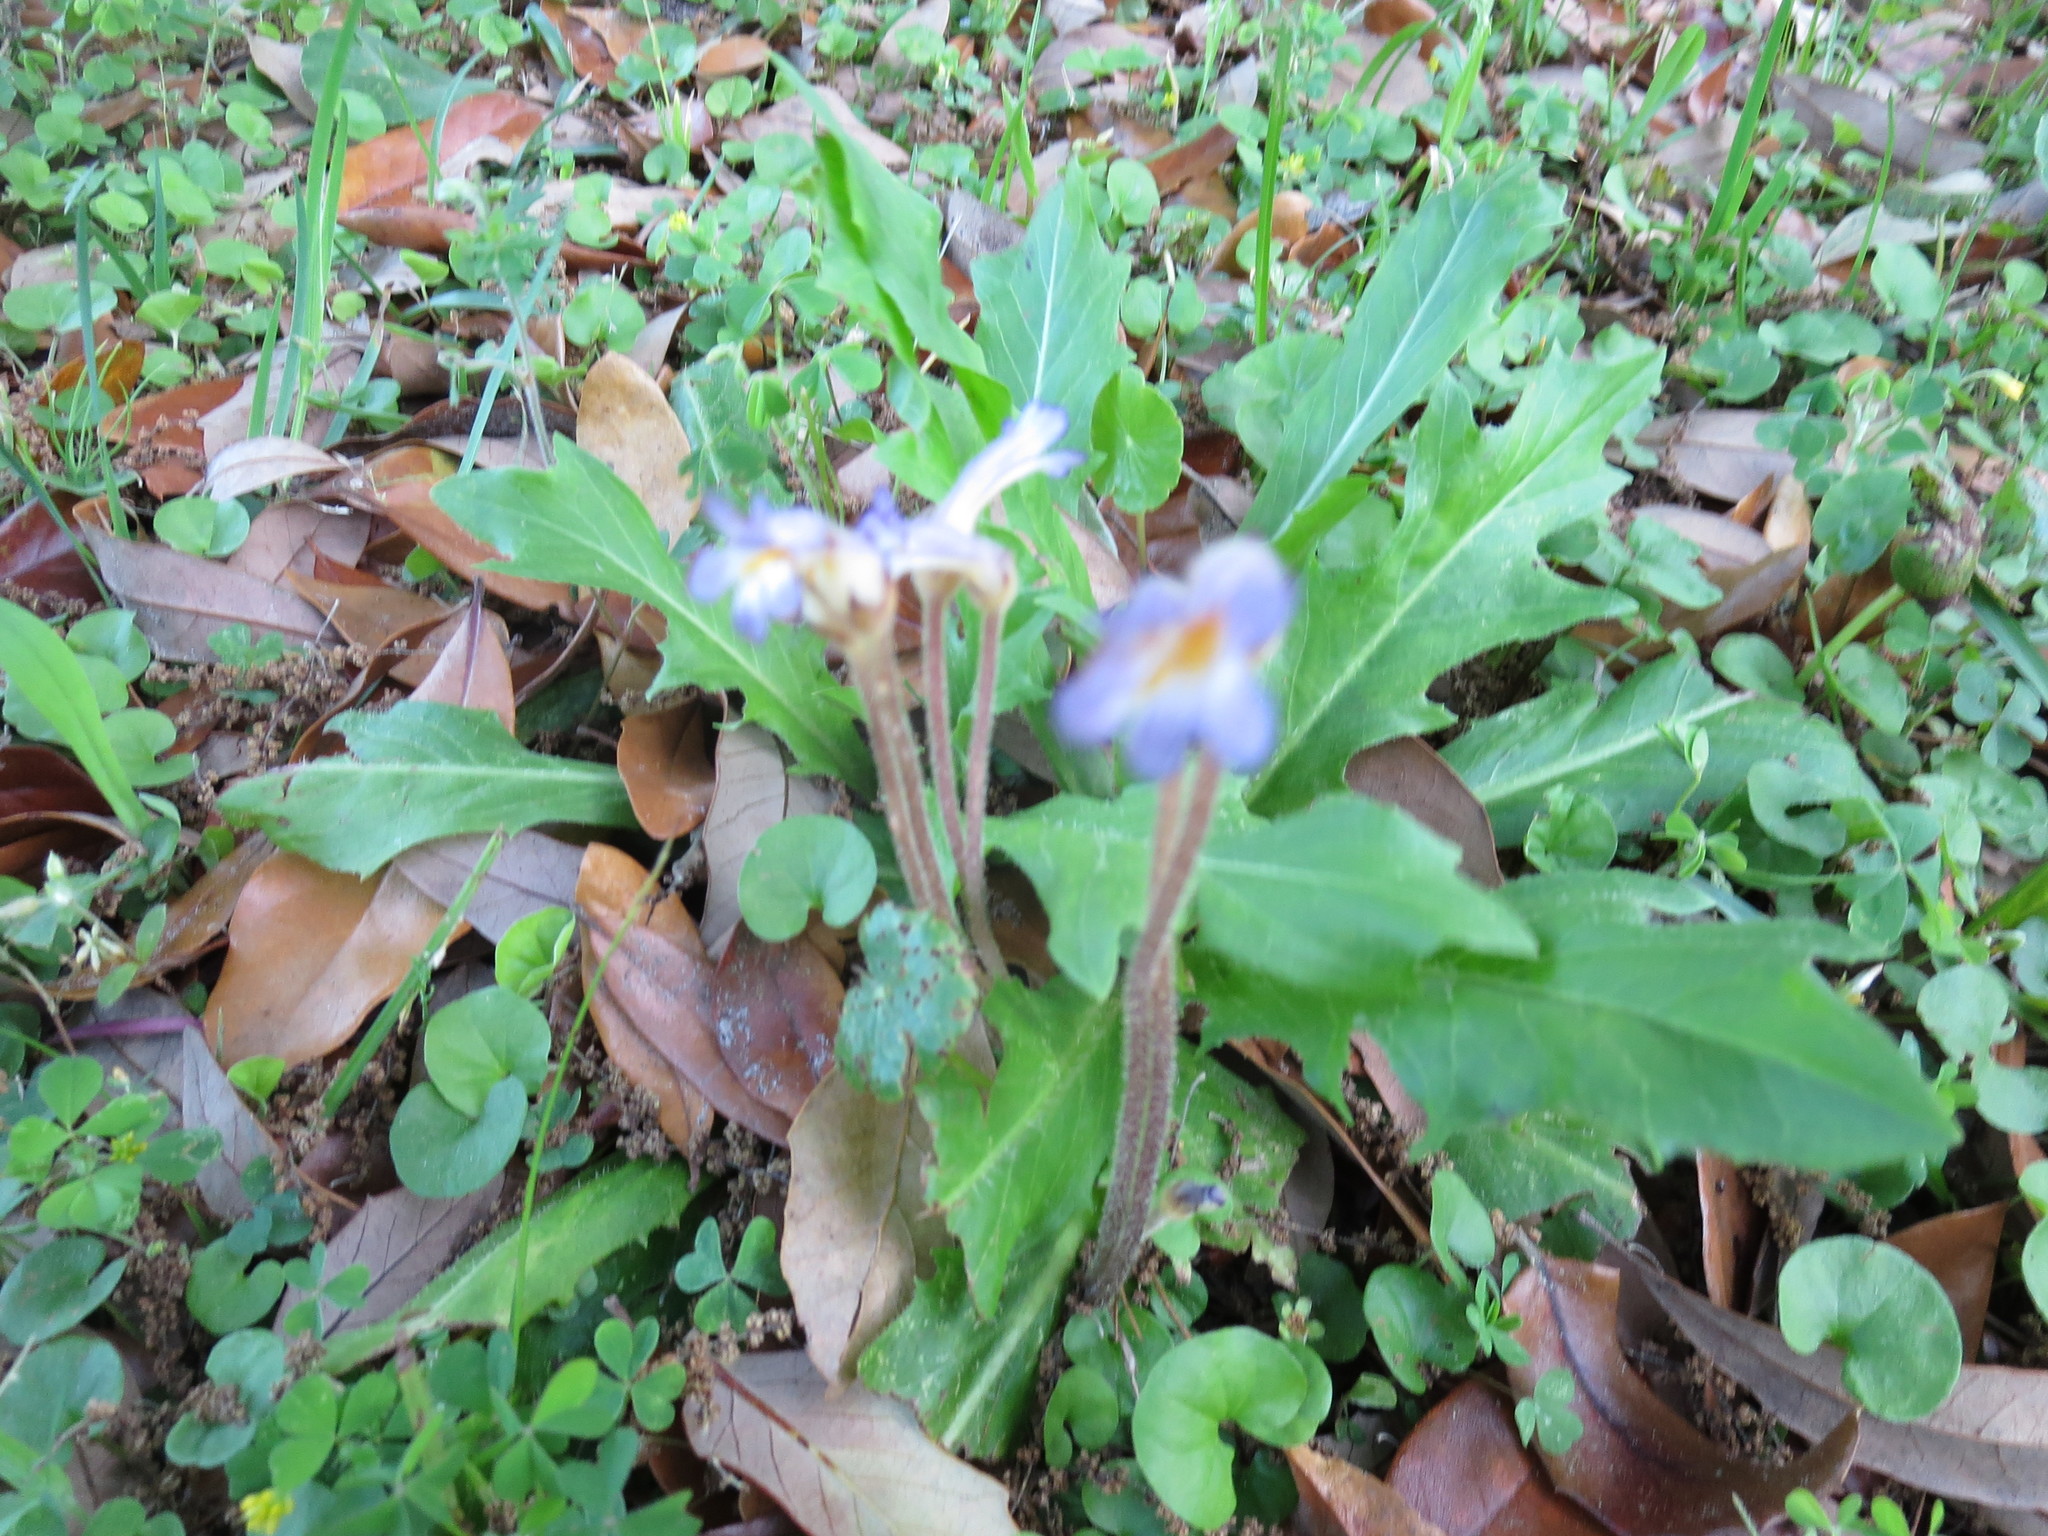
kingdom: Plantae
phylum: Tracheophyta
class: Magnoliopsida
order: Lamiales
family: Orobanchaceae
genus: Aphyllon
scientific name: Aphyllon uniflorum
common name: One-flowered broomrape
